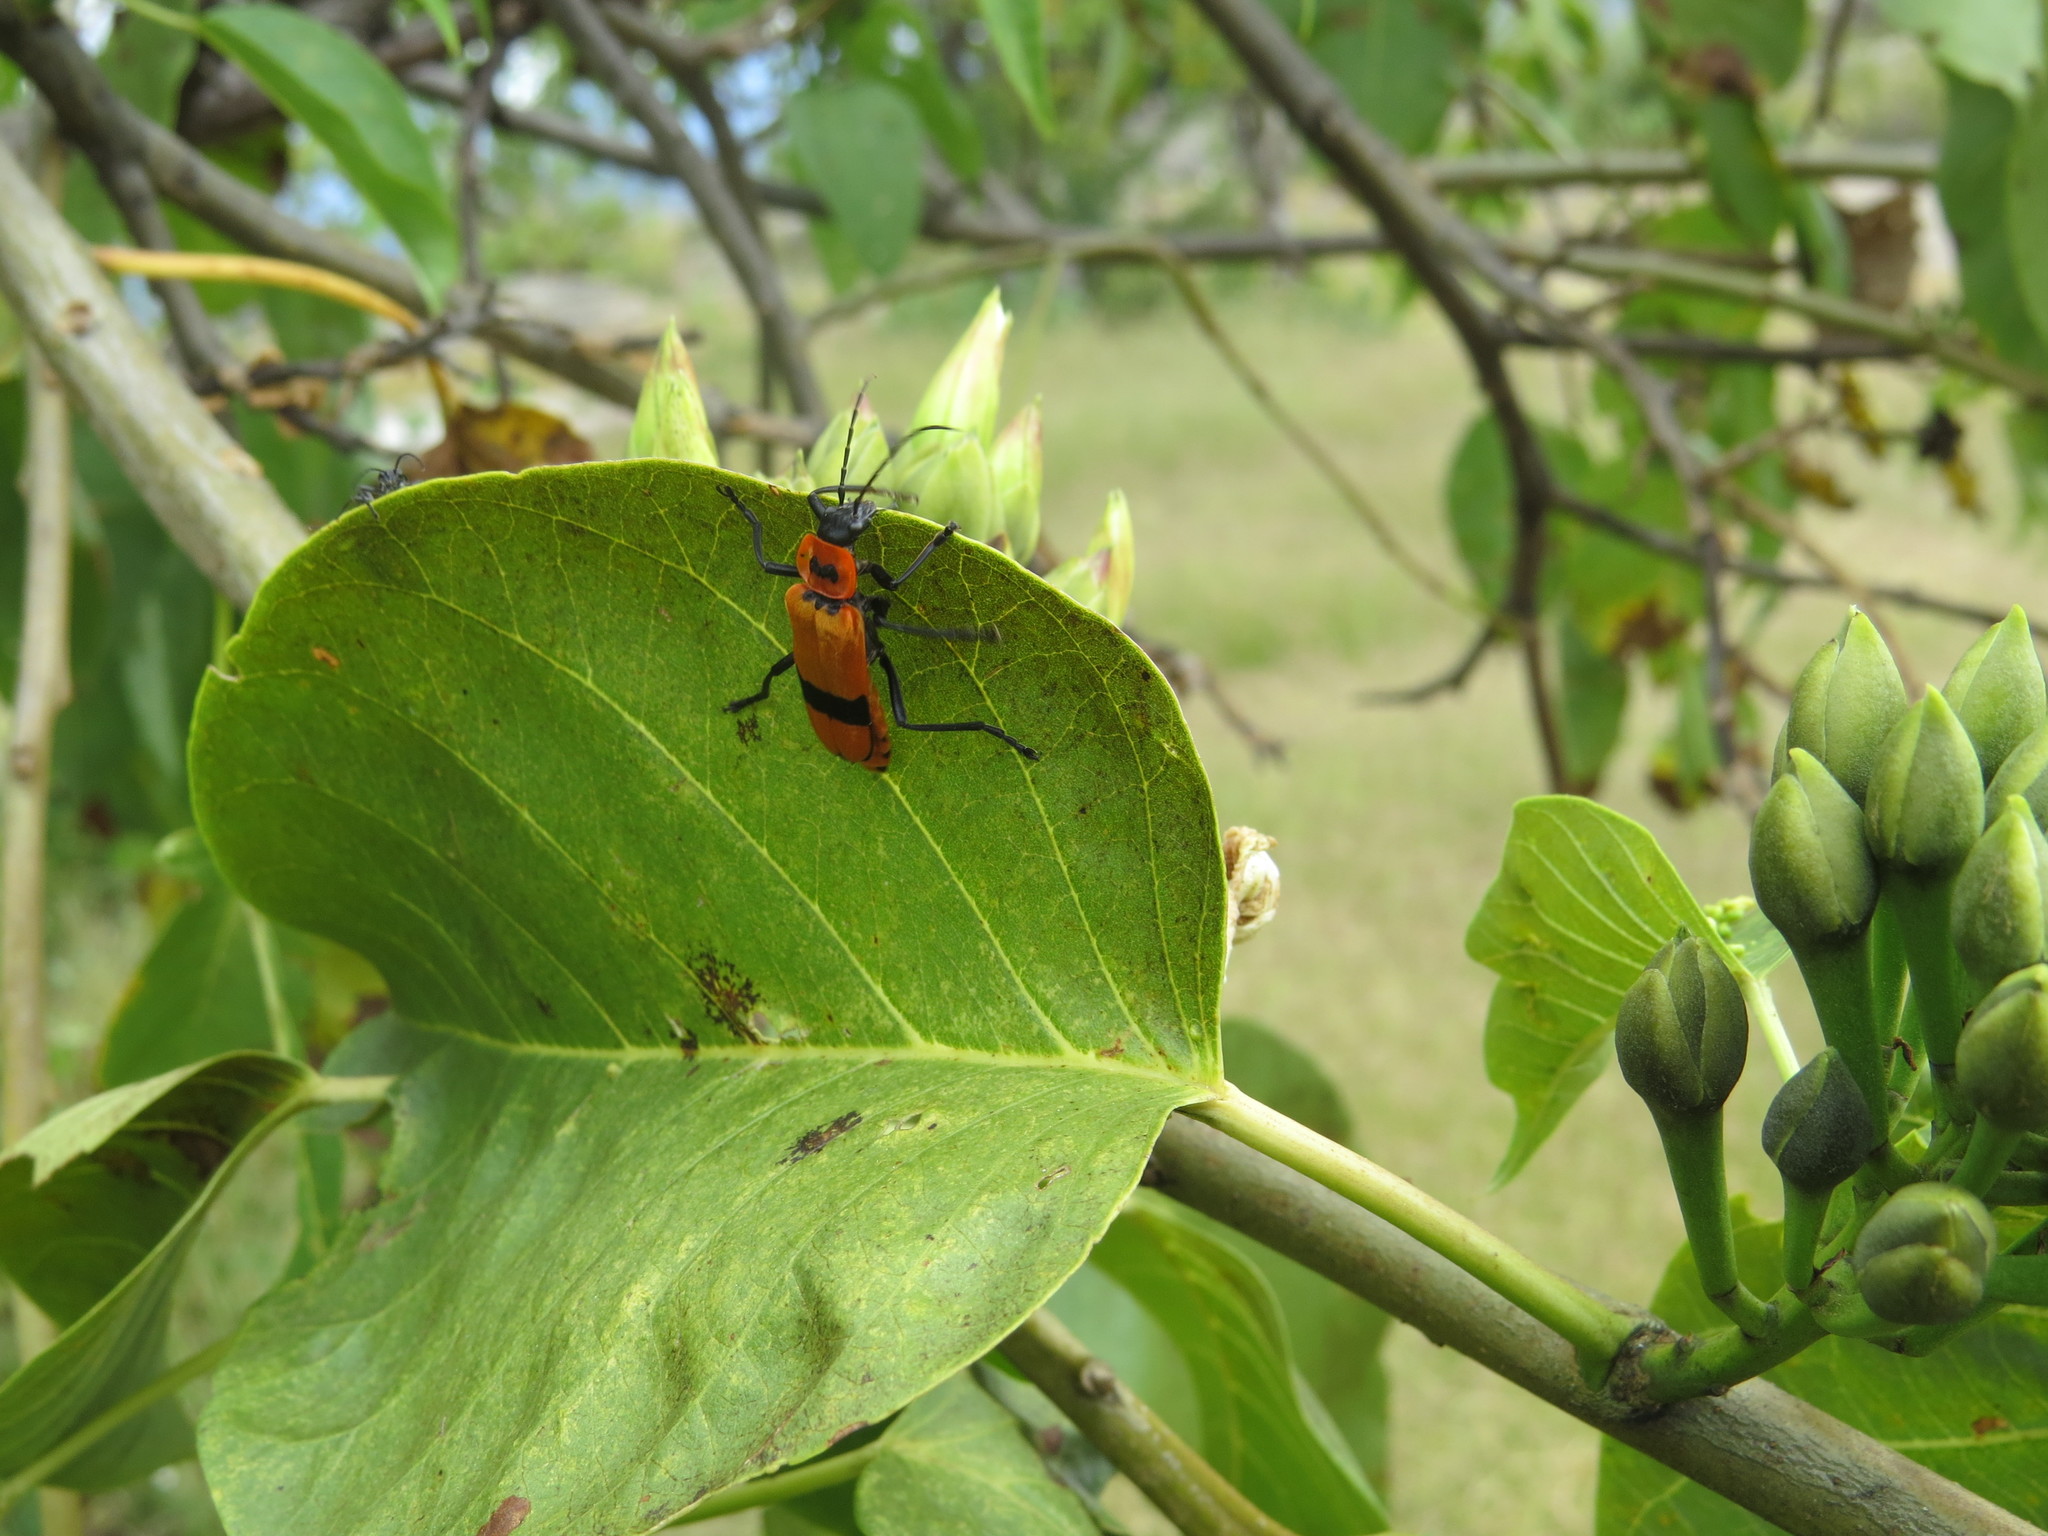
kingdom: Animalia
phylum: Arthropoda
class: Insecta
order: Coleoptera
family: Cantharidae
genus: Chauliognathus
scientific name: Chauliognathus
